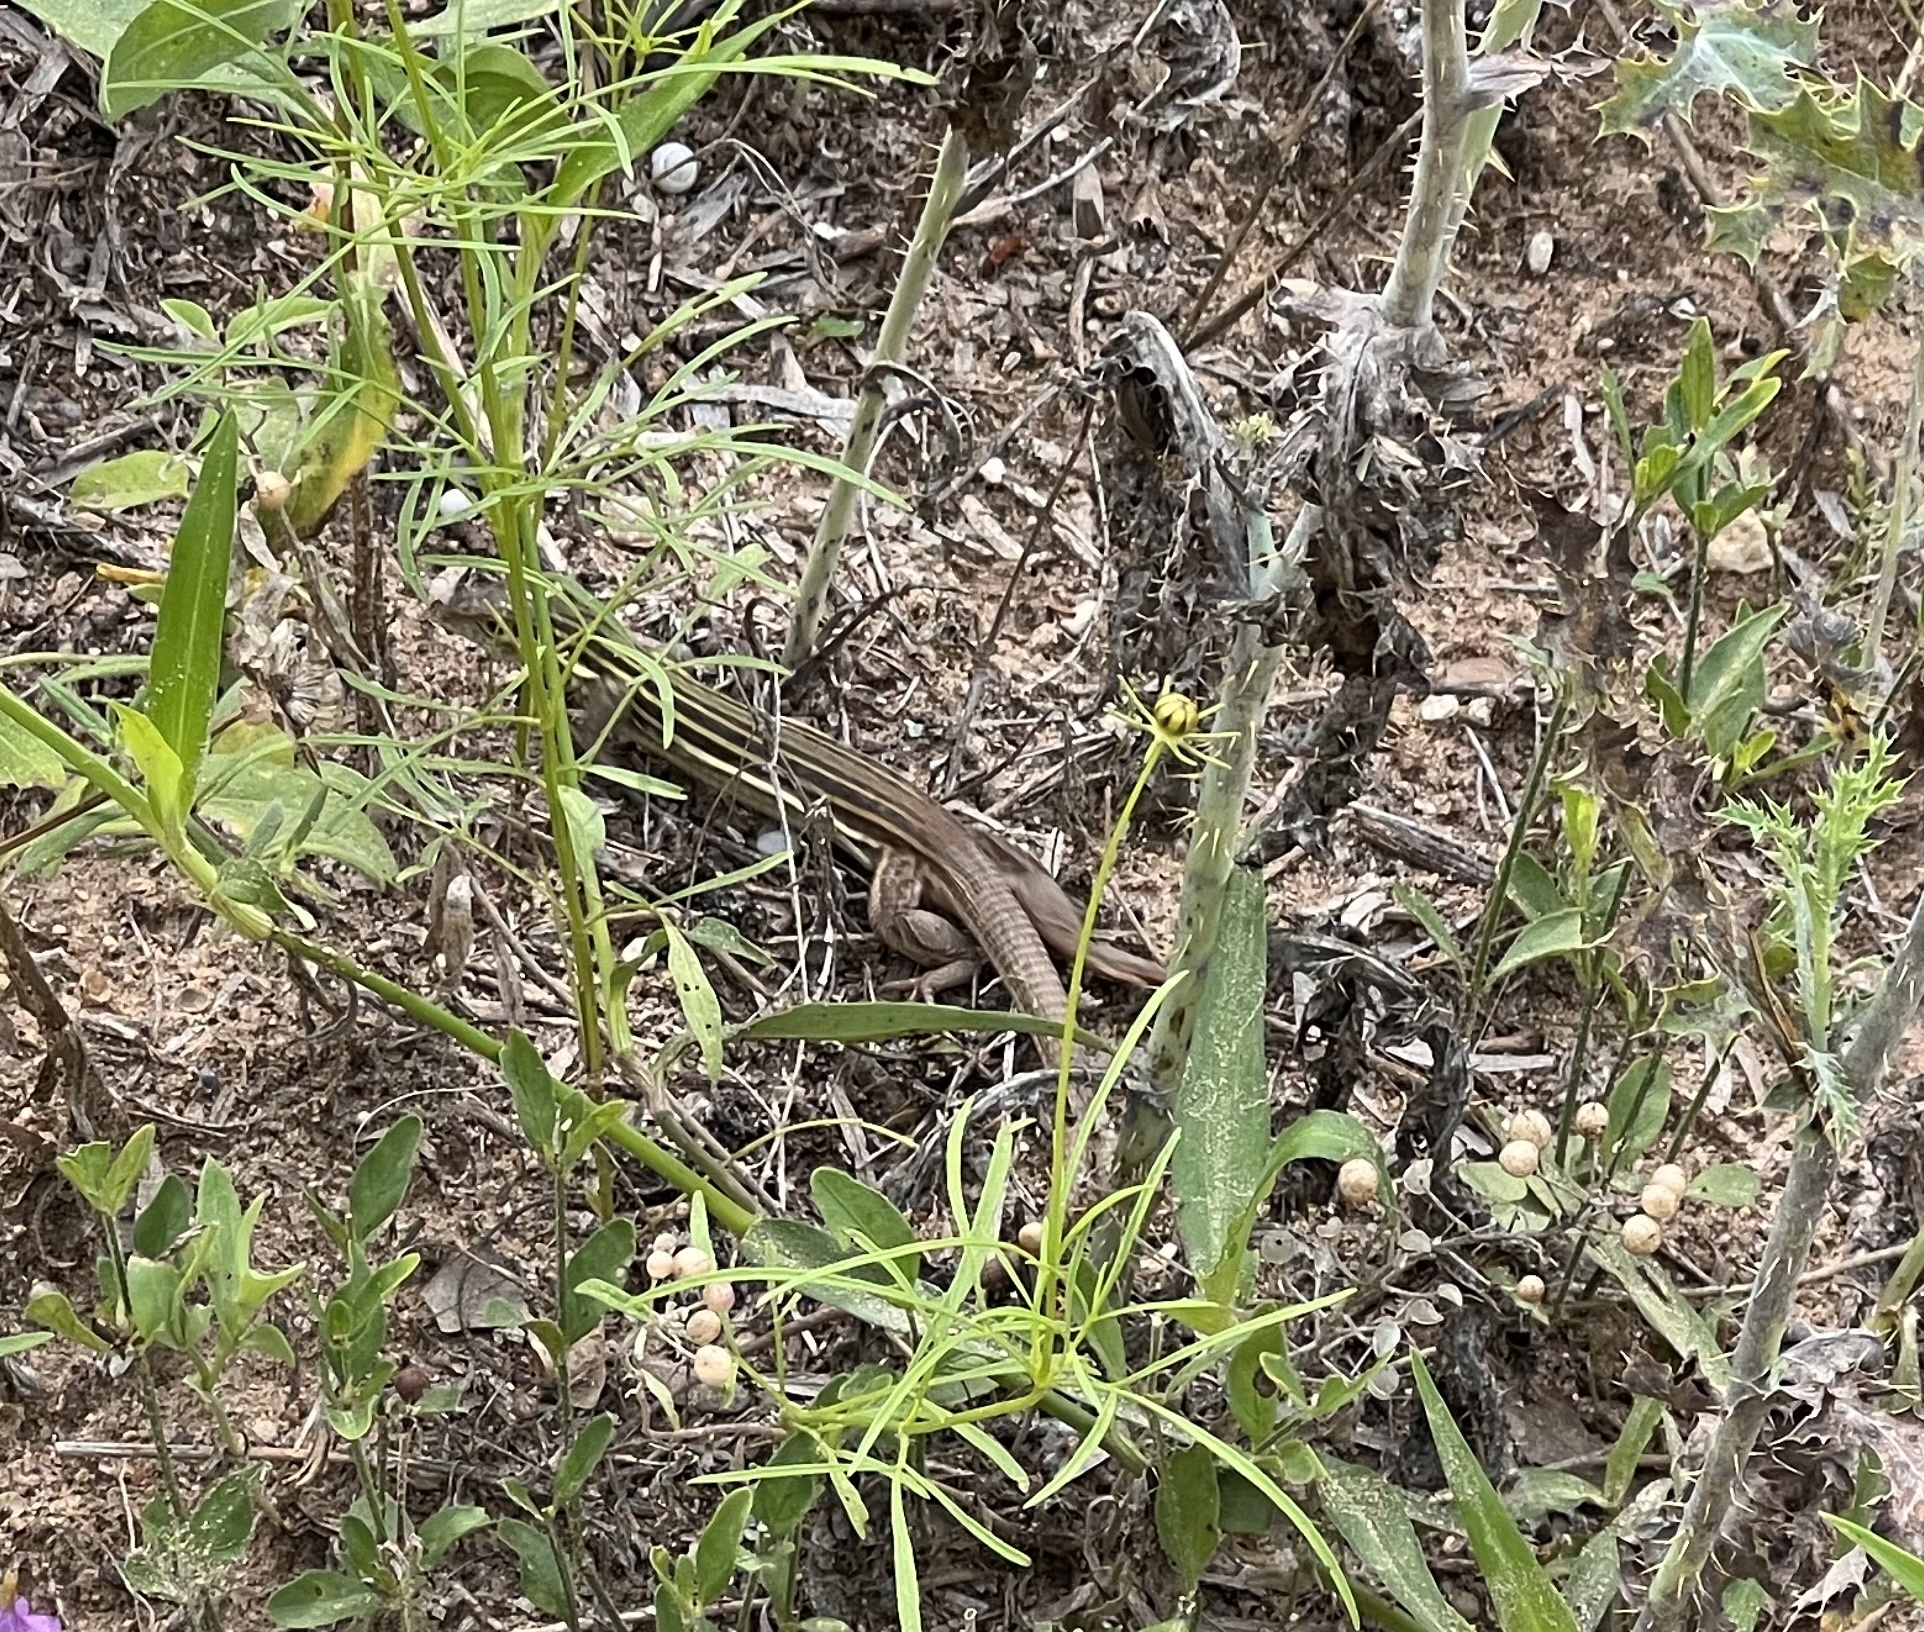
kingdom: Animalia
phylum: Chordata
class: Squamata
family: Teiidae
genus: Aspidoscelis
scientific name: Aspidoscelis gularis
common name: Eastern spotted whiptail
